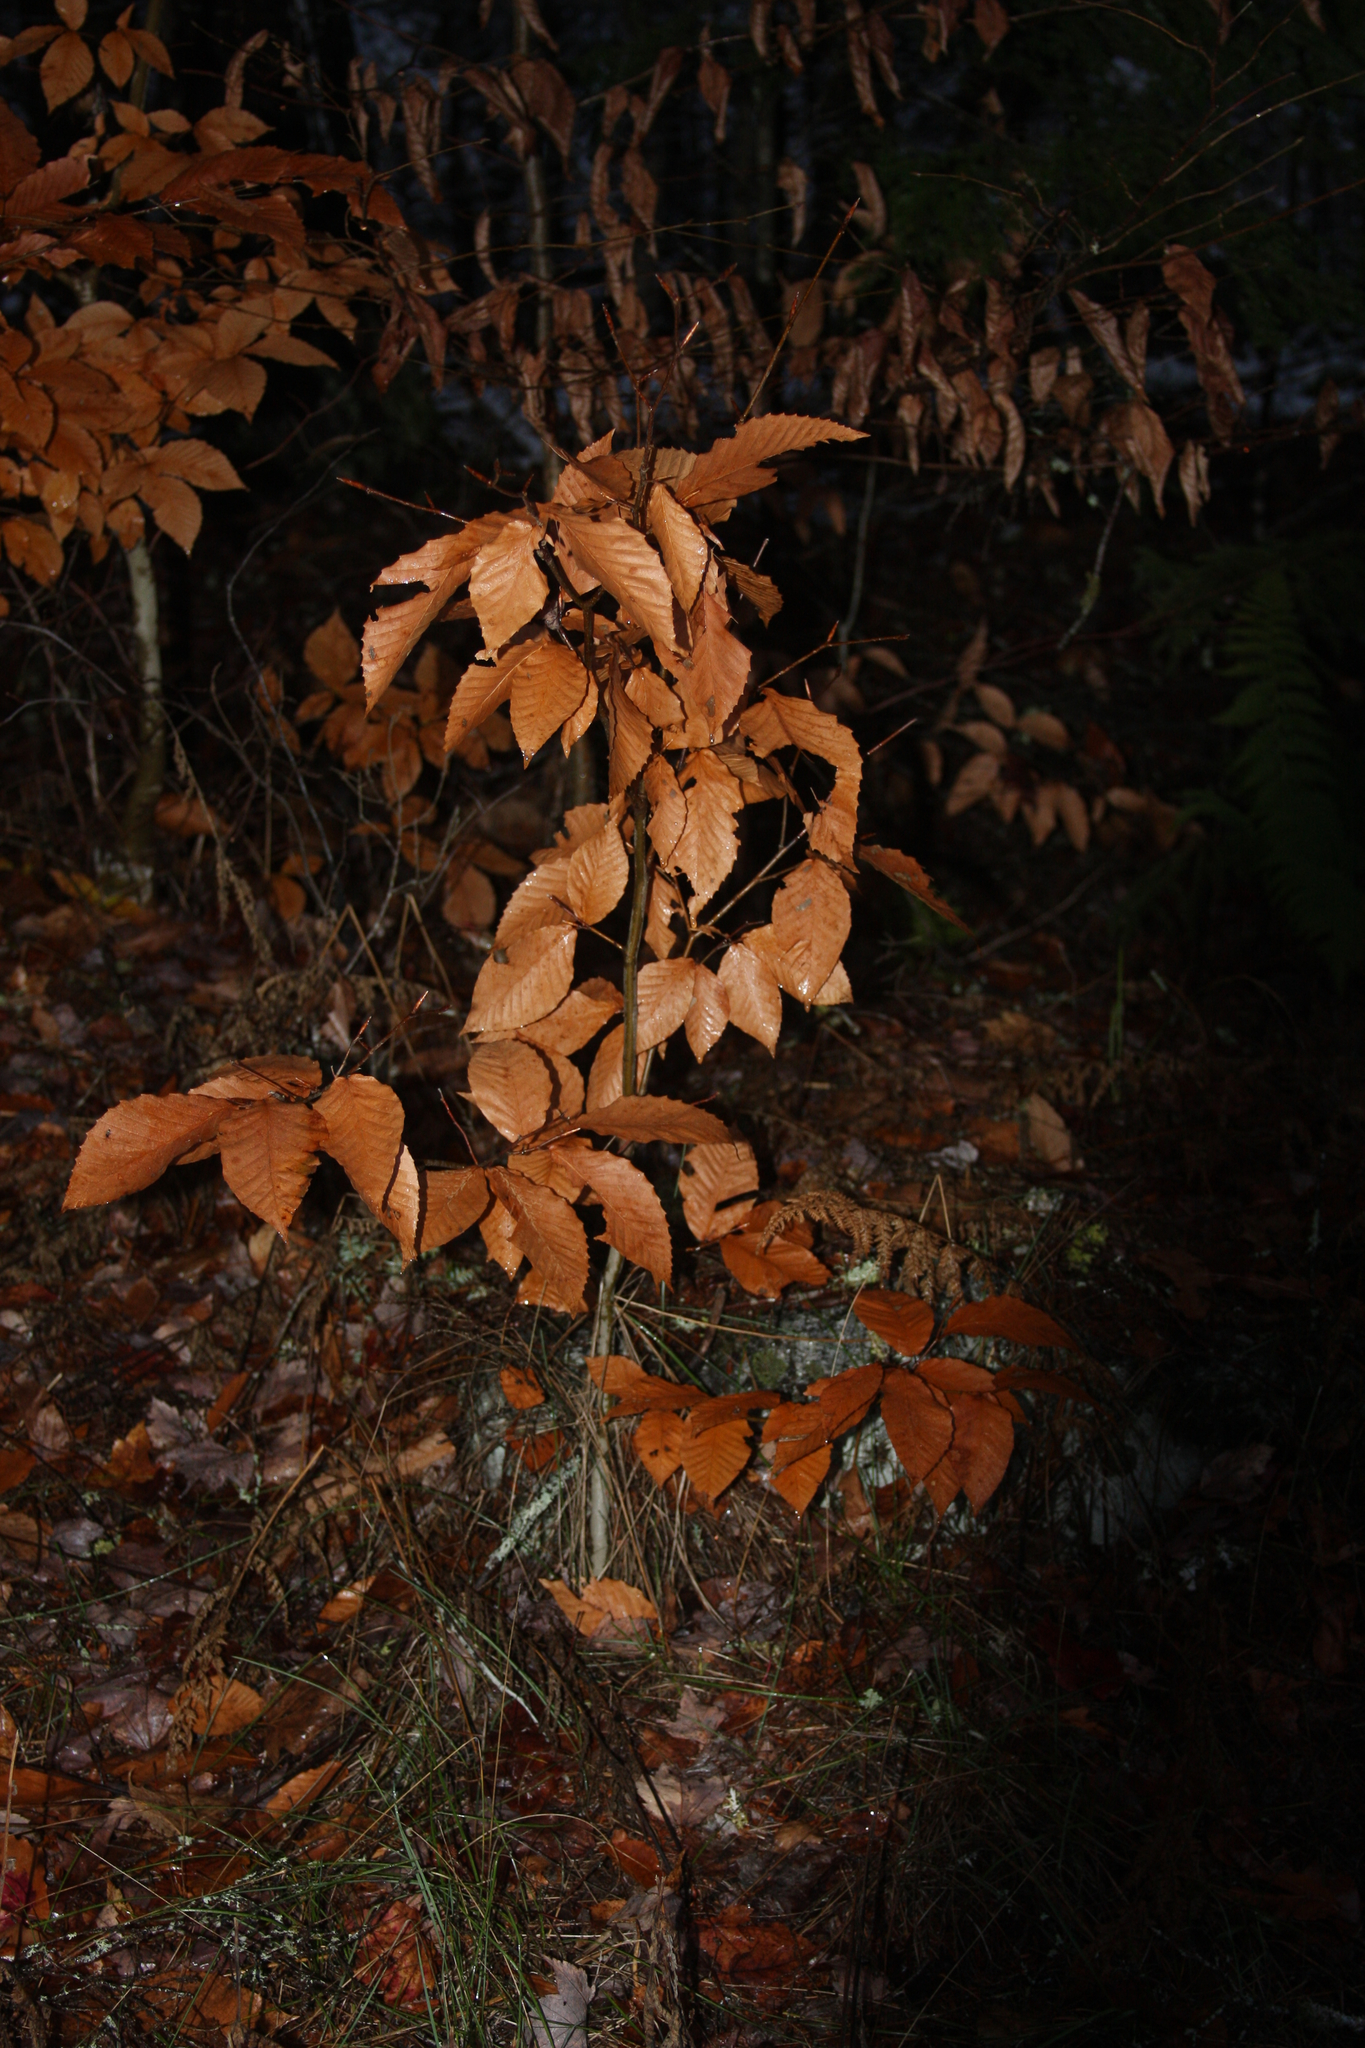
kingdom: Plantae
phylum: Tracheophyta
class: Magnoliopsida
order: Fagales
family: Fagaceae
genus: Fagus
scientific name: Fagus grandifolia
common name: American beech
